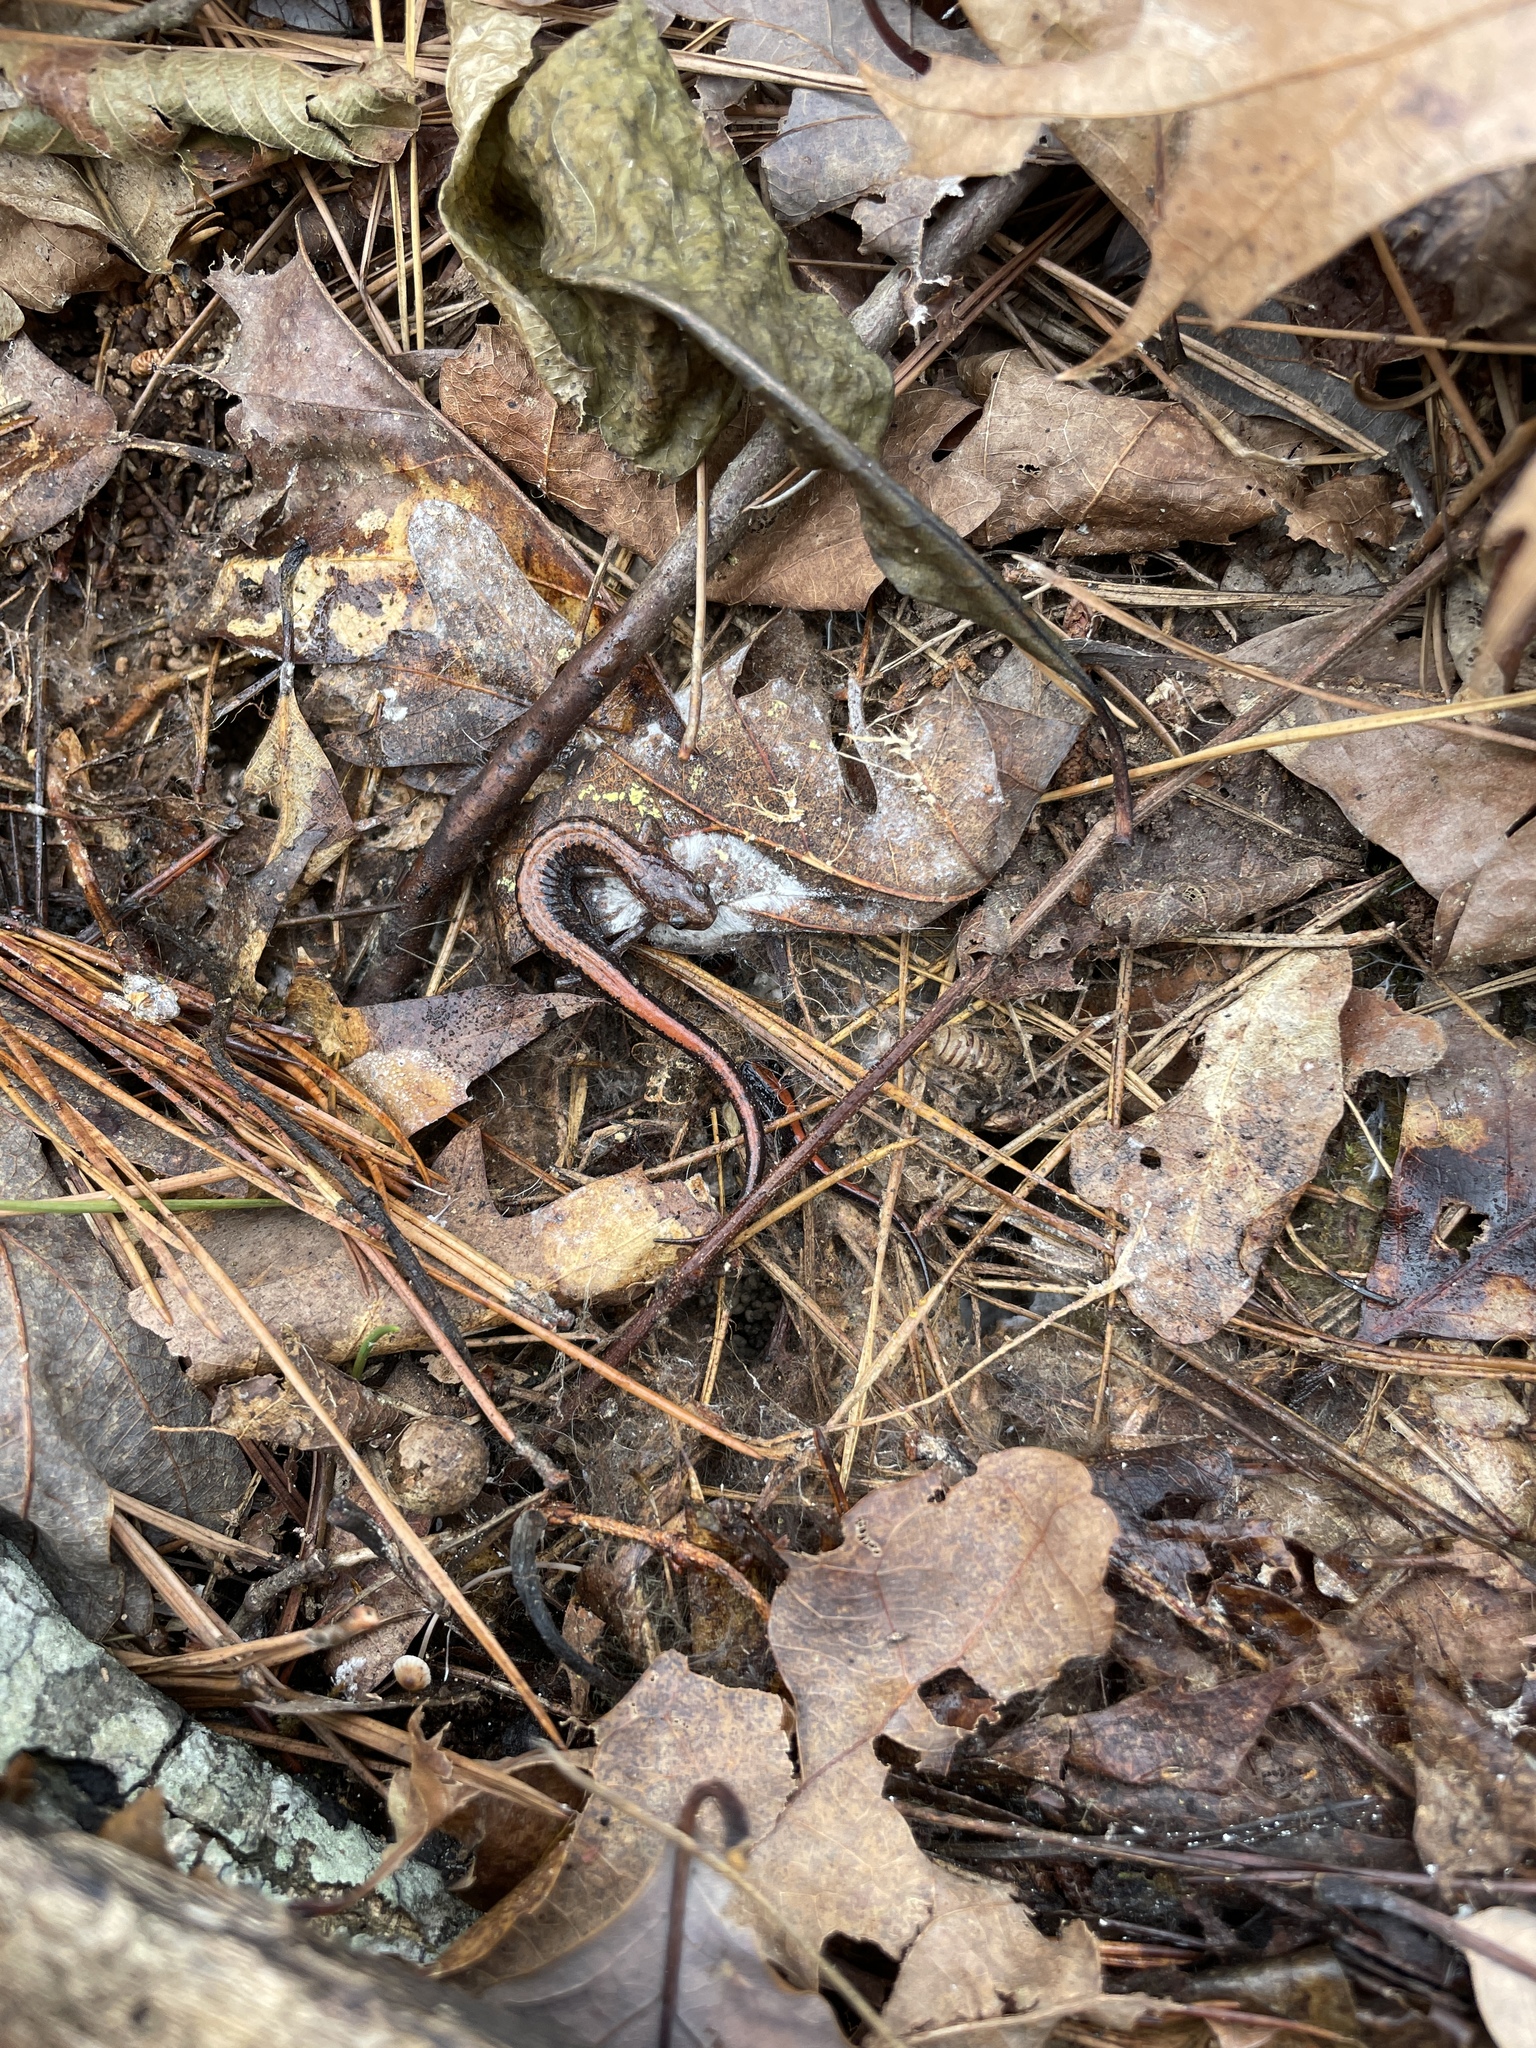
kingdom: Animalia
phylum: Chordata
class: Amphibia
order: Caudata
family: Plethodontidae
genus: Plethodon
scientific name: Plethodon serratus
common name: Southern red-backed salamander
